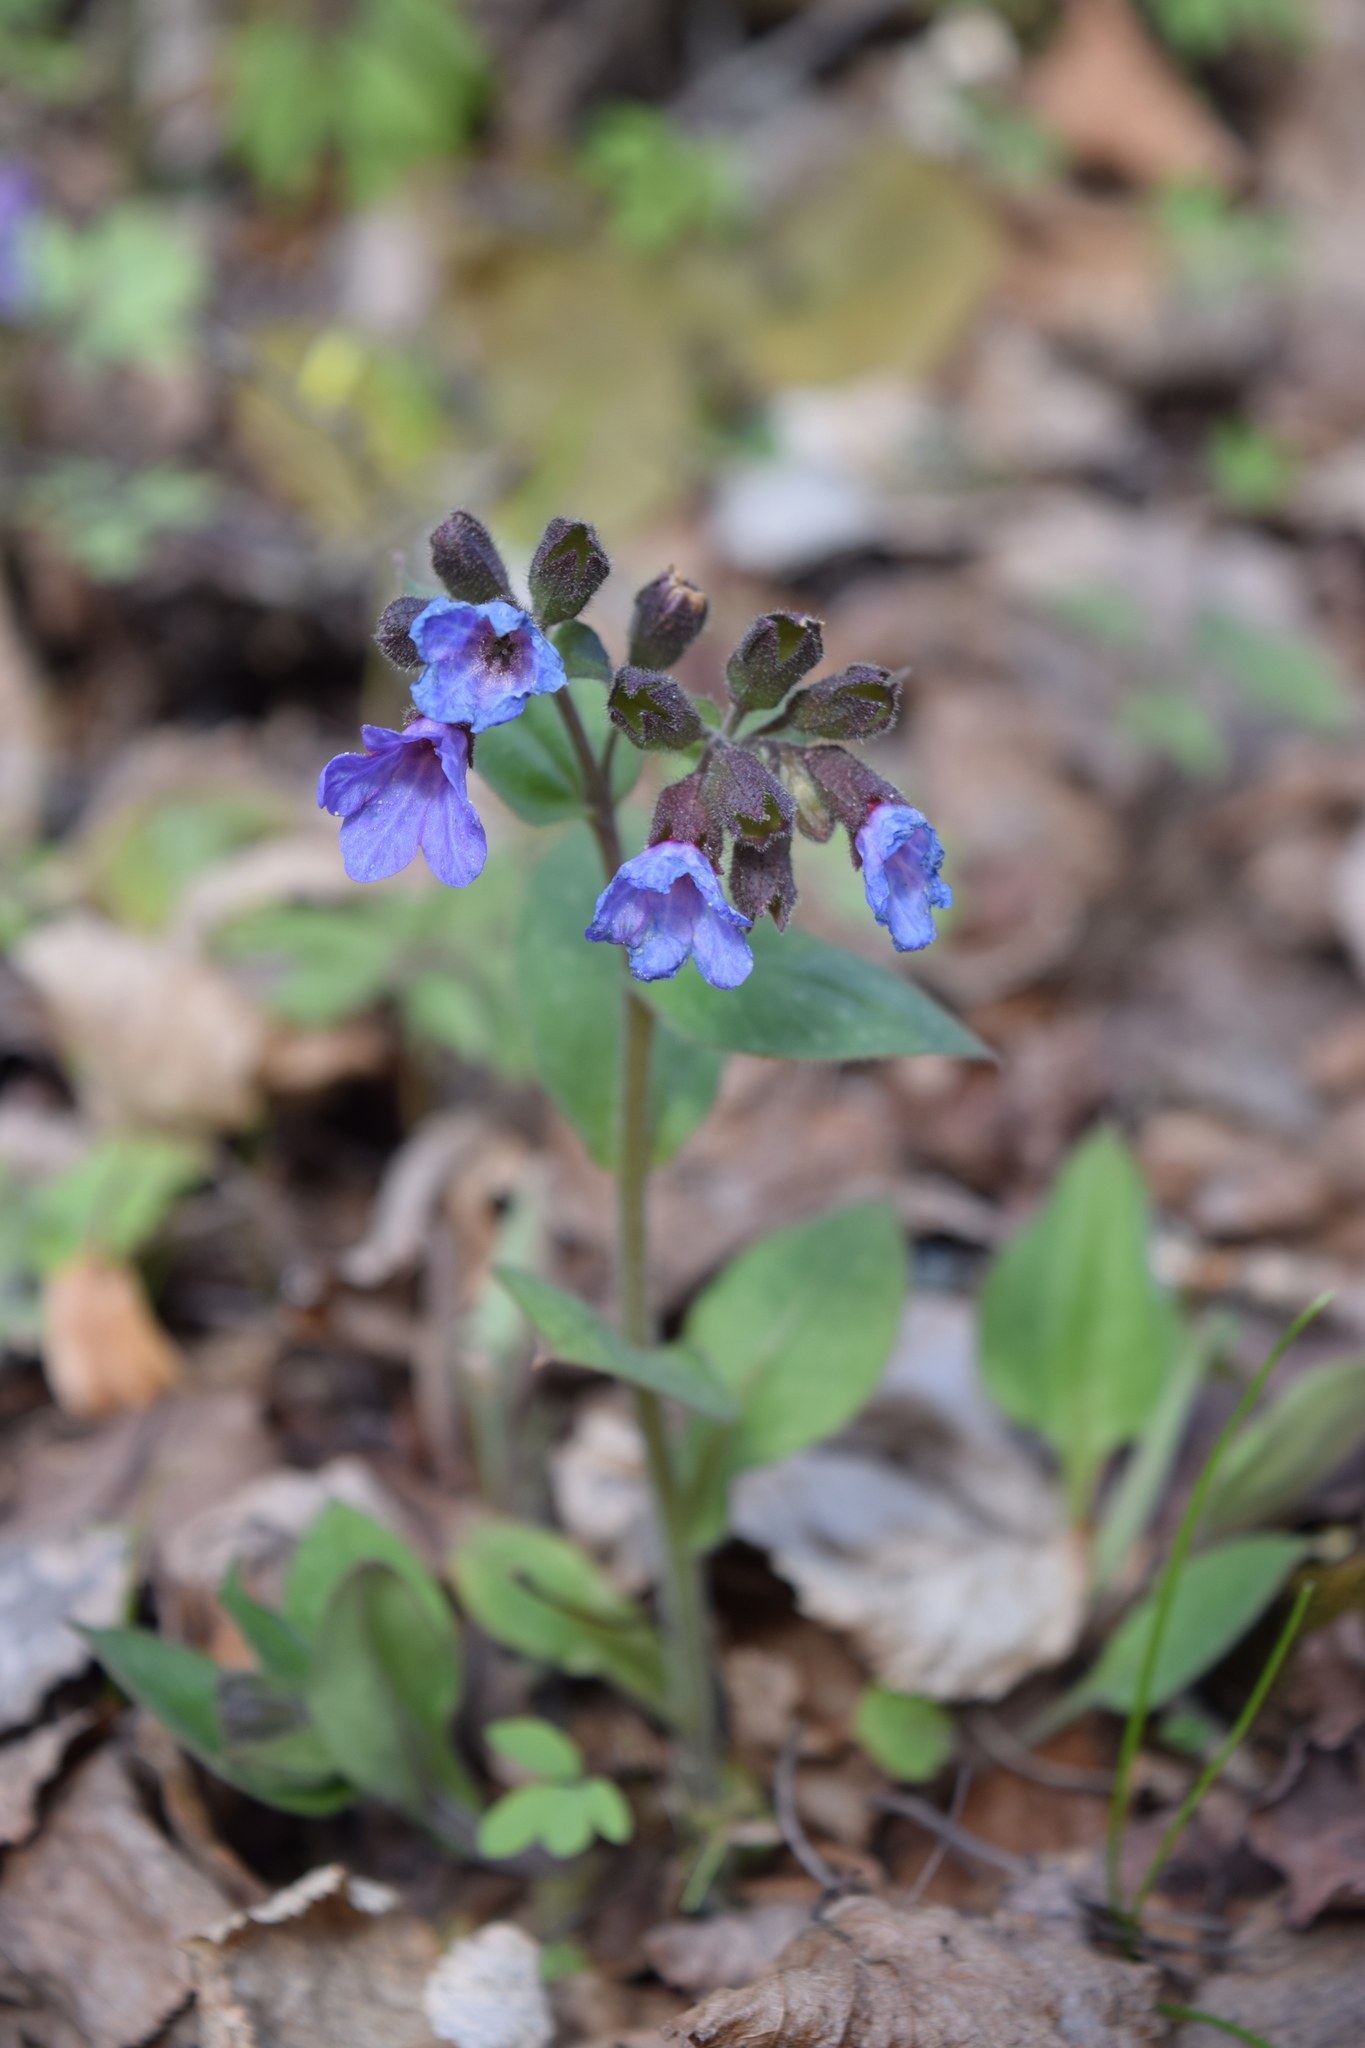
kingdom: Plantae
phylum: Tracheophyta
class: Magnoliopsida
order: Boraginales
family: Boraginaceae
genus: Pulmonaria
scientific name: Pulmonaria obscura
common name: Suffolk lungwort
